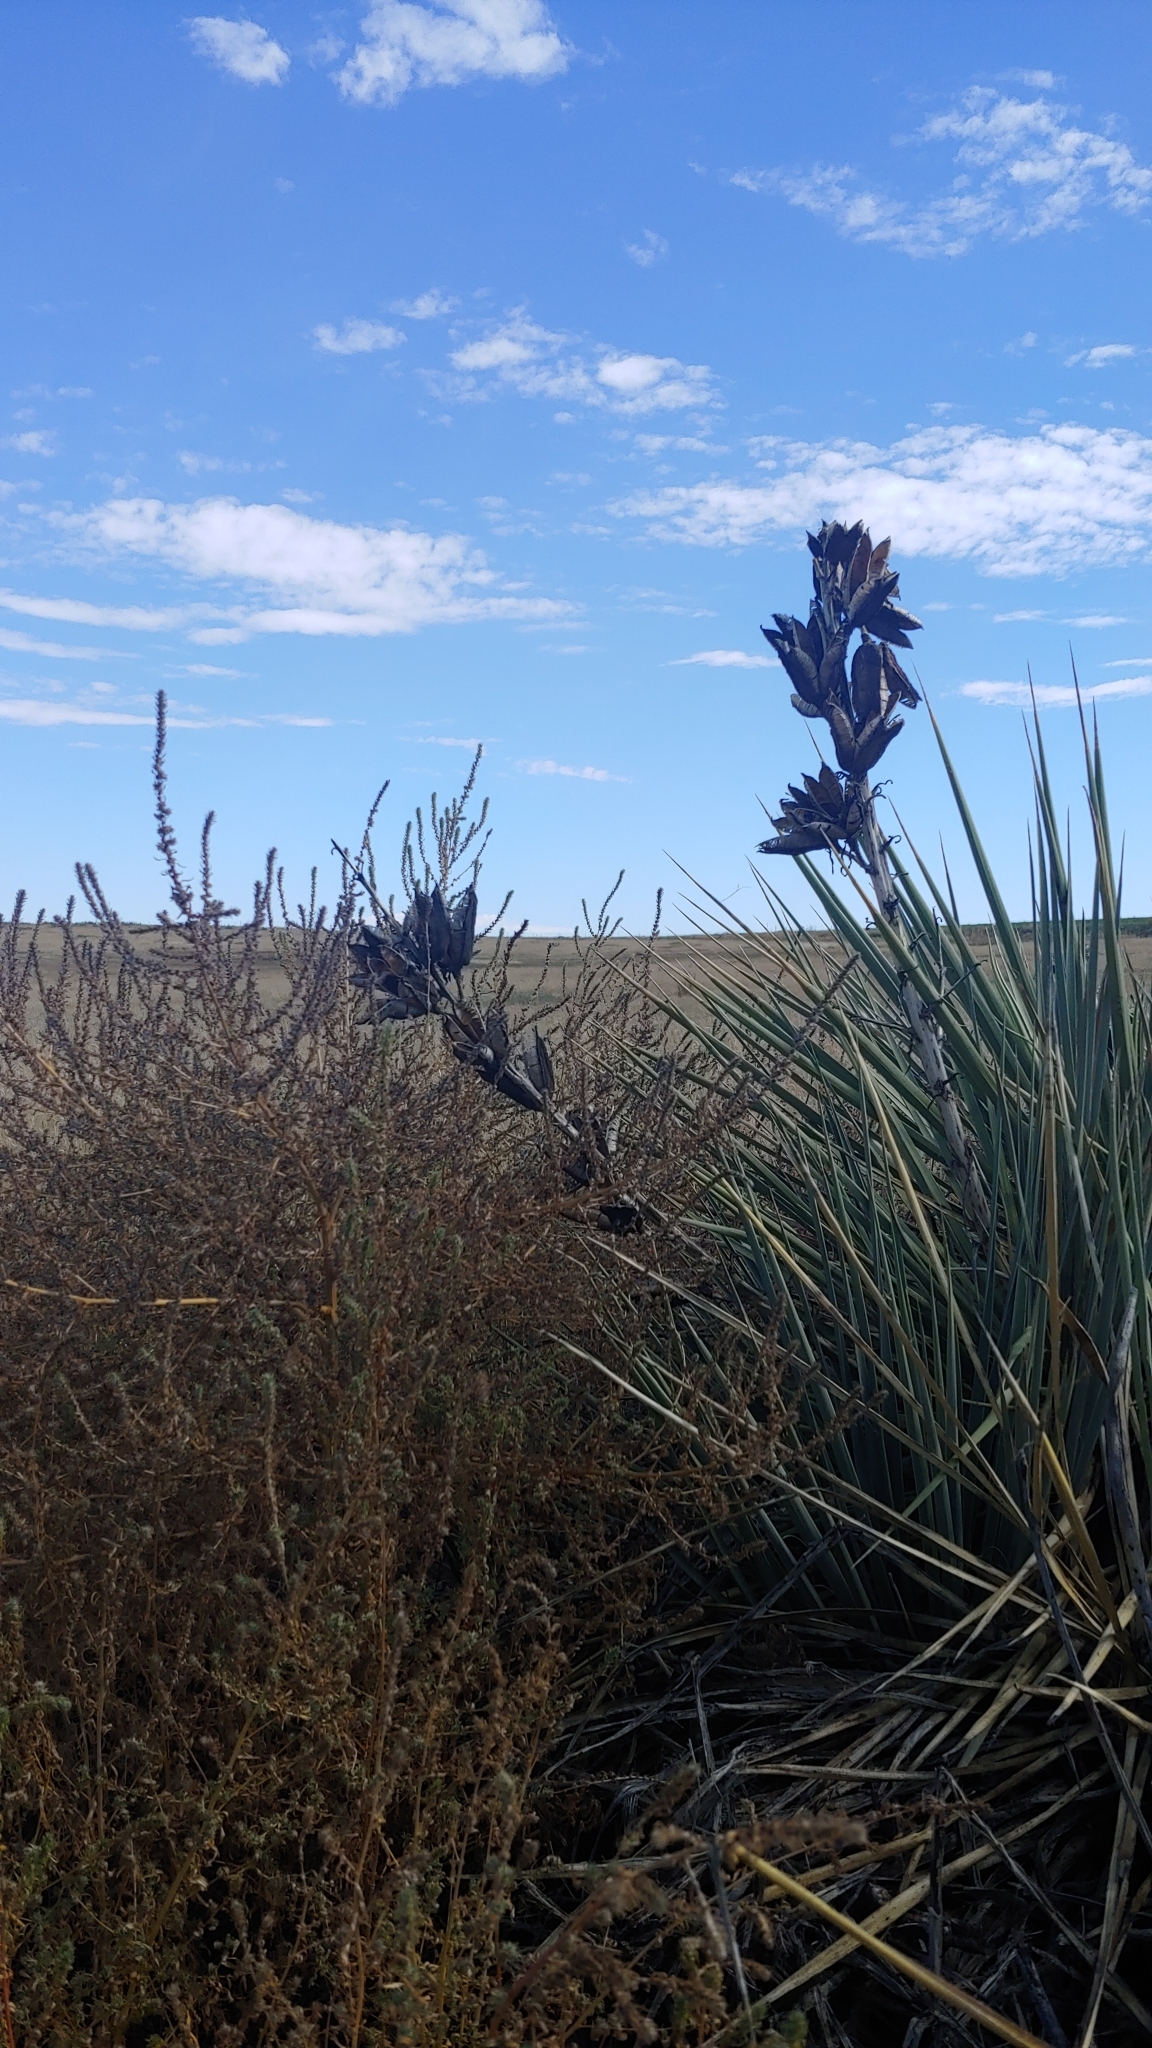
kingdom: Plantae
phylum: Tracheophyta
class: Liliopsida
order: Asparagales
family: Asparagaceae
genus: Yucca
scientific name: Yucca glauca
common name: Great plains yucca
